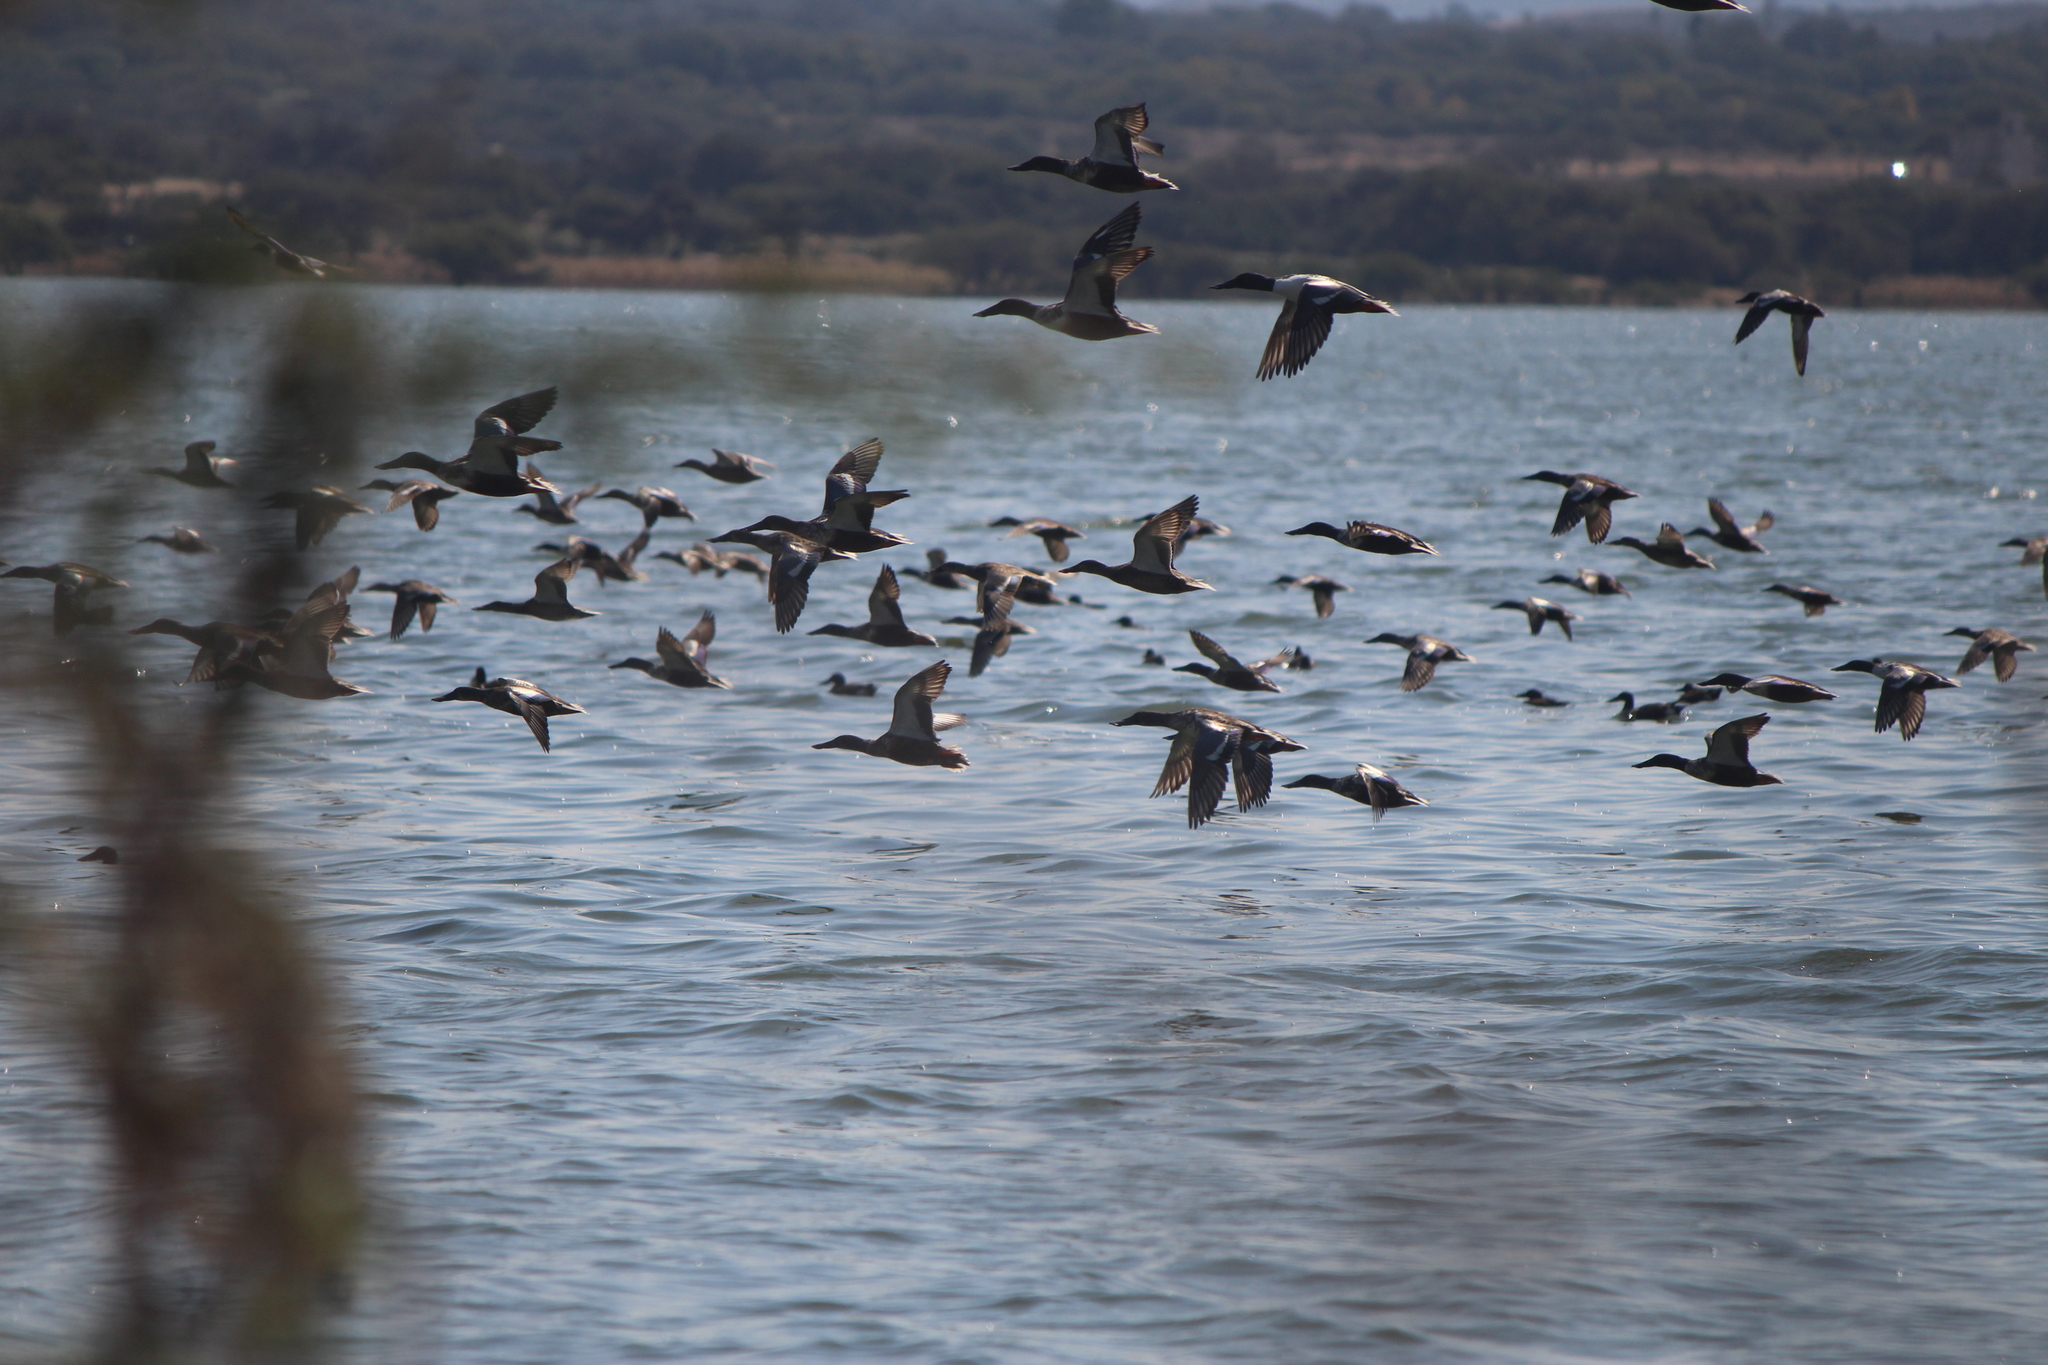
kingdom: Animalia
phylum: Chordata
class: Aves
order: Anseriformes
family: Anatidae
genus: Spatula
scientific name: Spatula clypeata
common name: Northern shoveler
